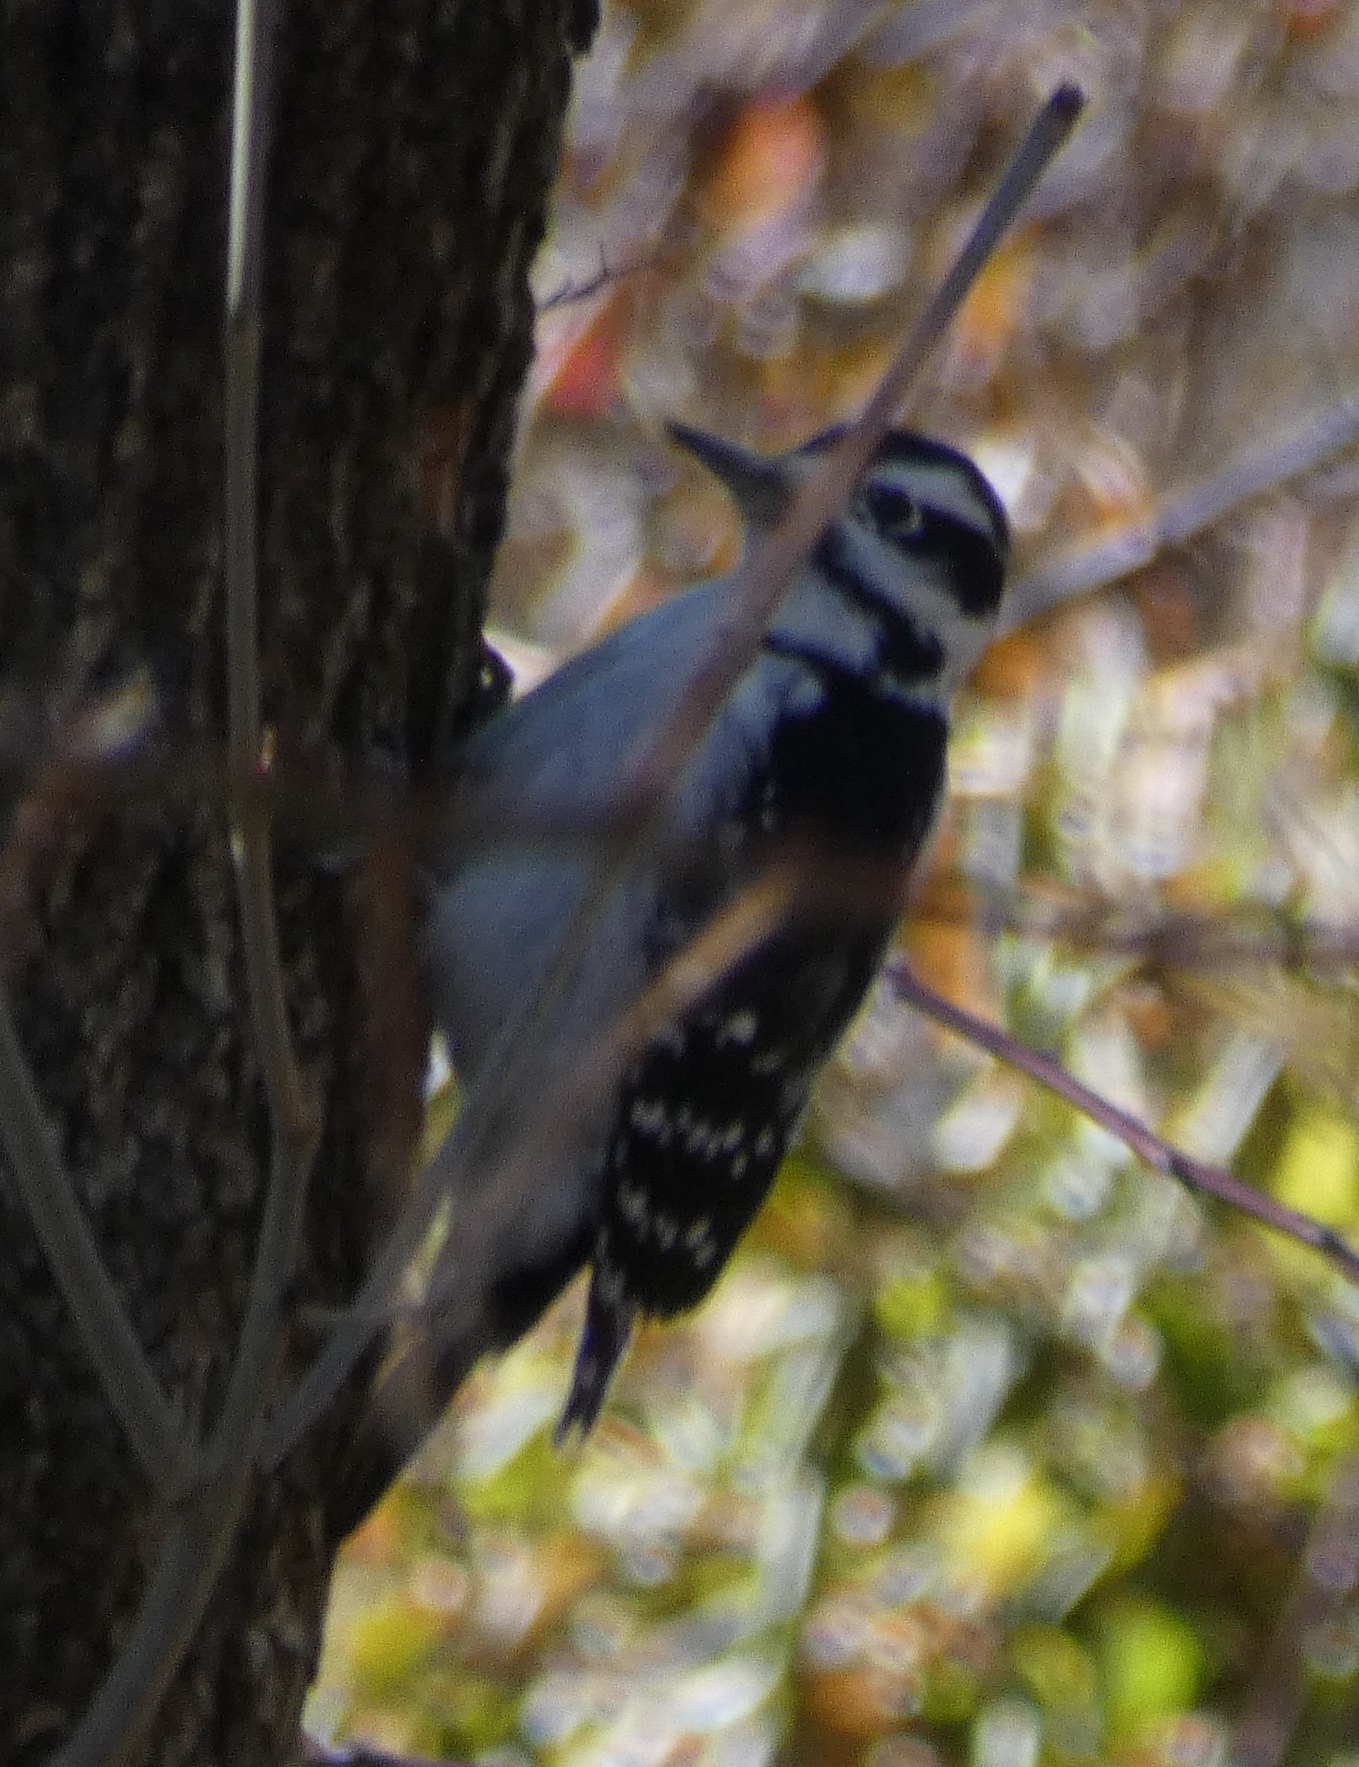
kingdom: Animalia
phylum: Chordata
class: Aves
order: Piciformes
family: Picidae
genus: Leuconotopicus
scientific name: Leuconotopicus villosus
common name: Hairy woodpecker
